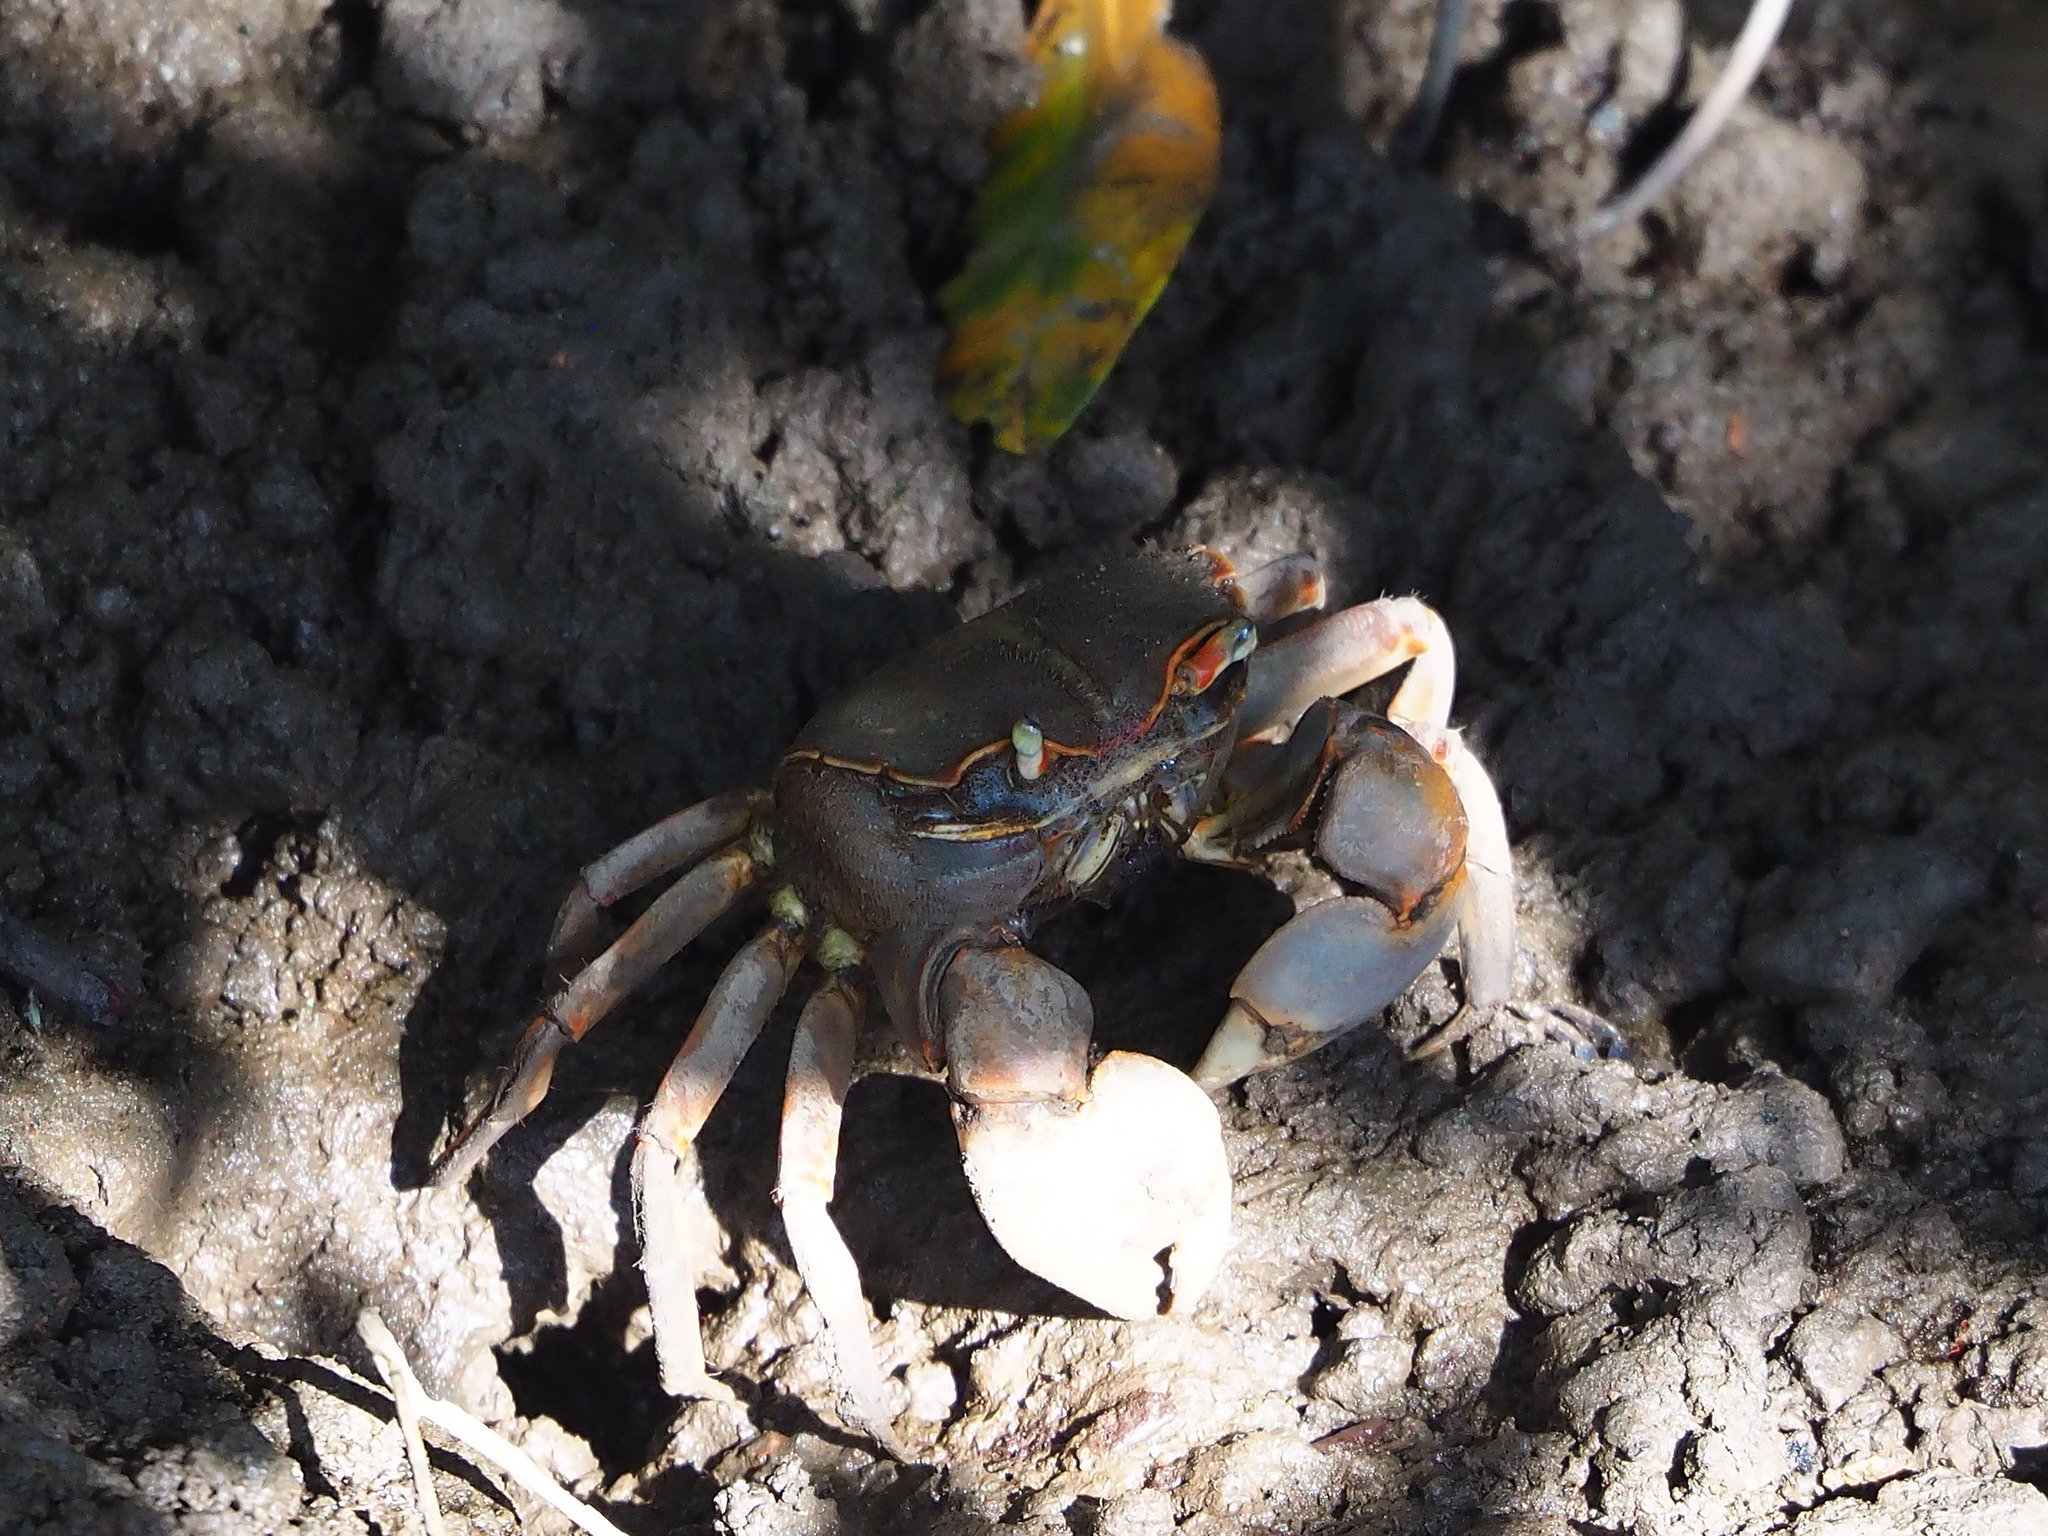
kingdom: Animalia
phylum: Arthropoda
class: Malacostraca
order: Decapoda
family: Varunidae
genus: Chasmagnathus
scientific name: Chasmagnathus convexus
